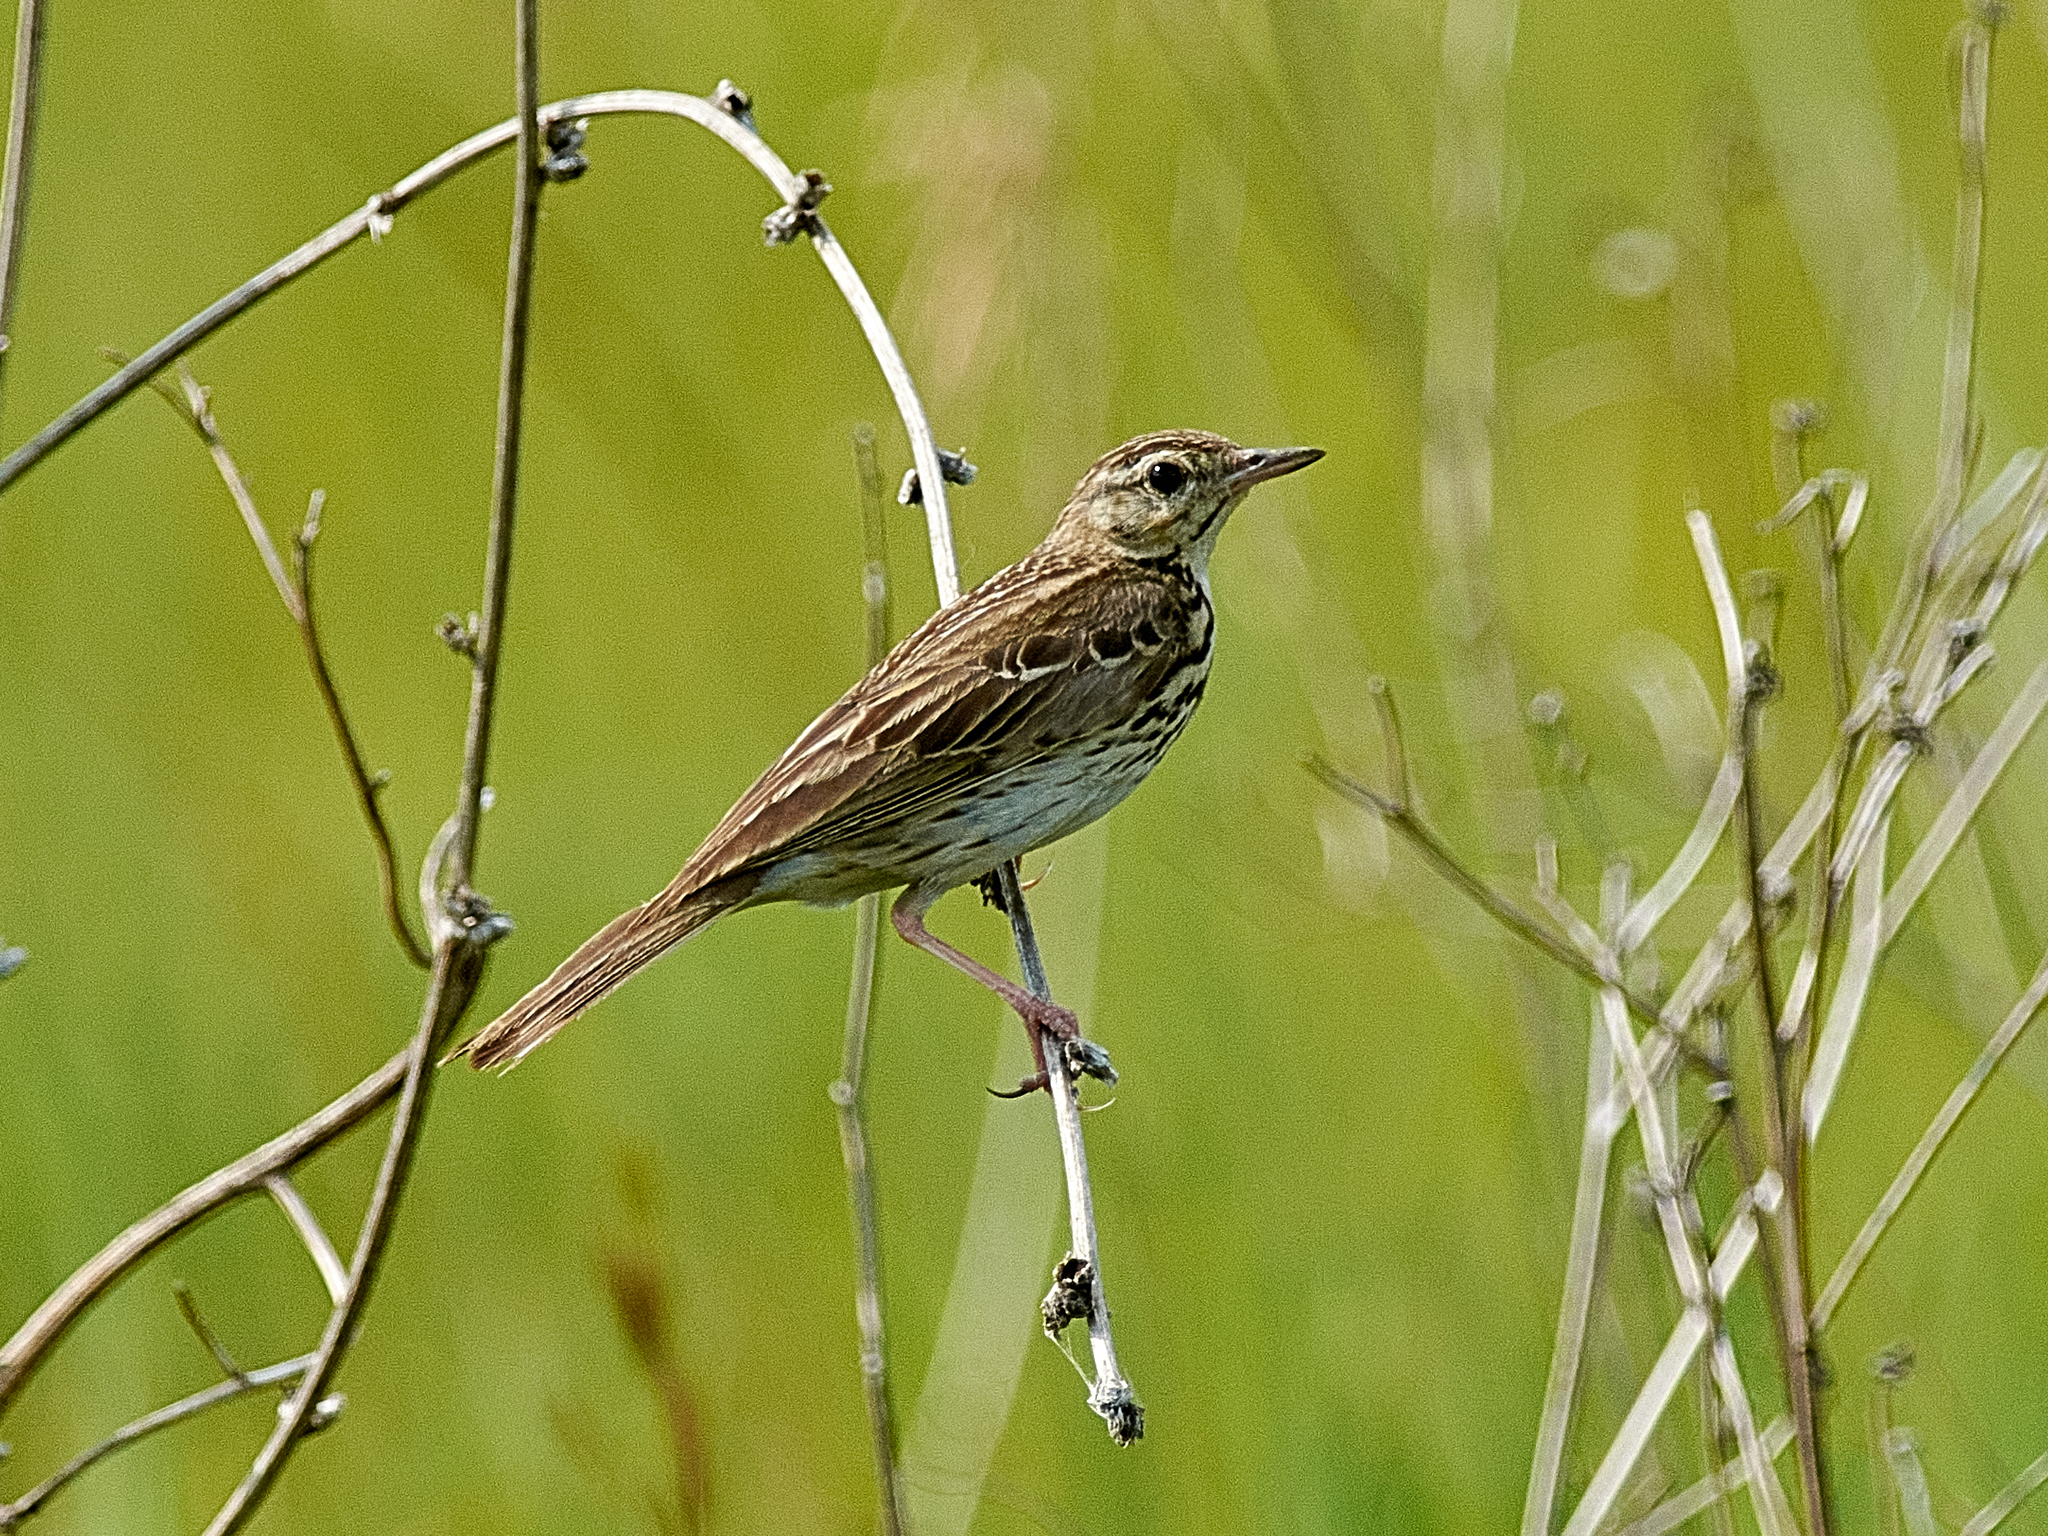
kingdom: Animalia
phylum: Chordata
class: Aves
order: Passeriformes
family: Motacillidae
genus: Anthus
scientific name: Anthus trivialis
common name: Tree pipit
